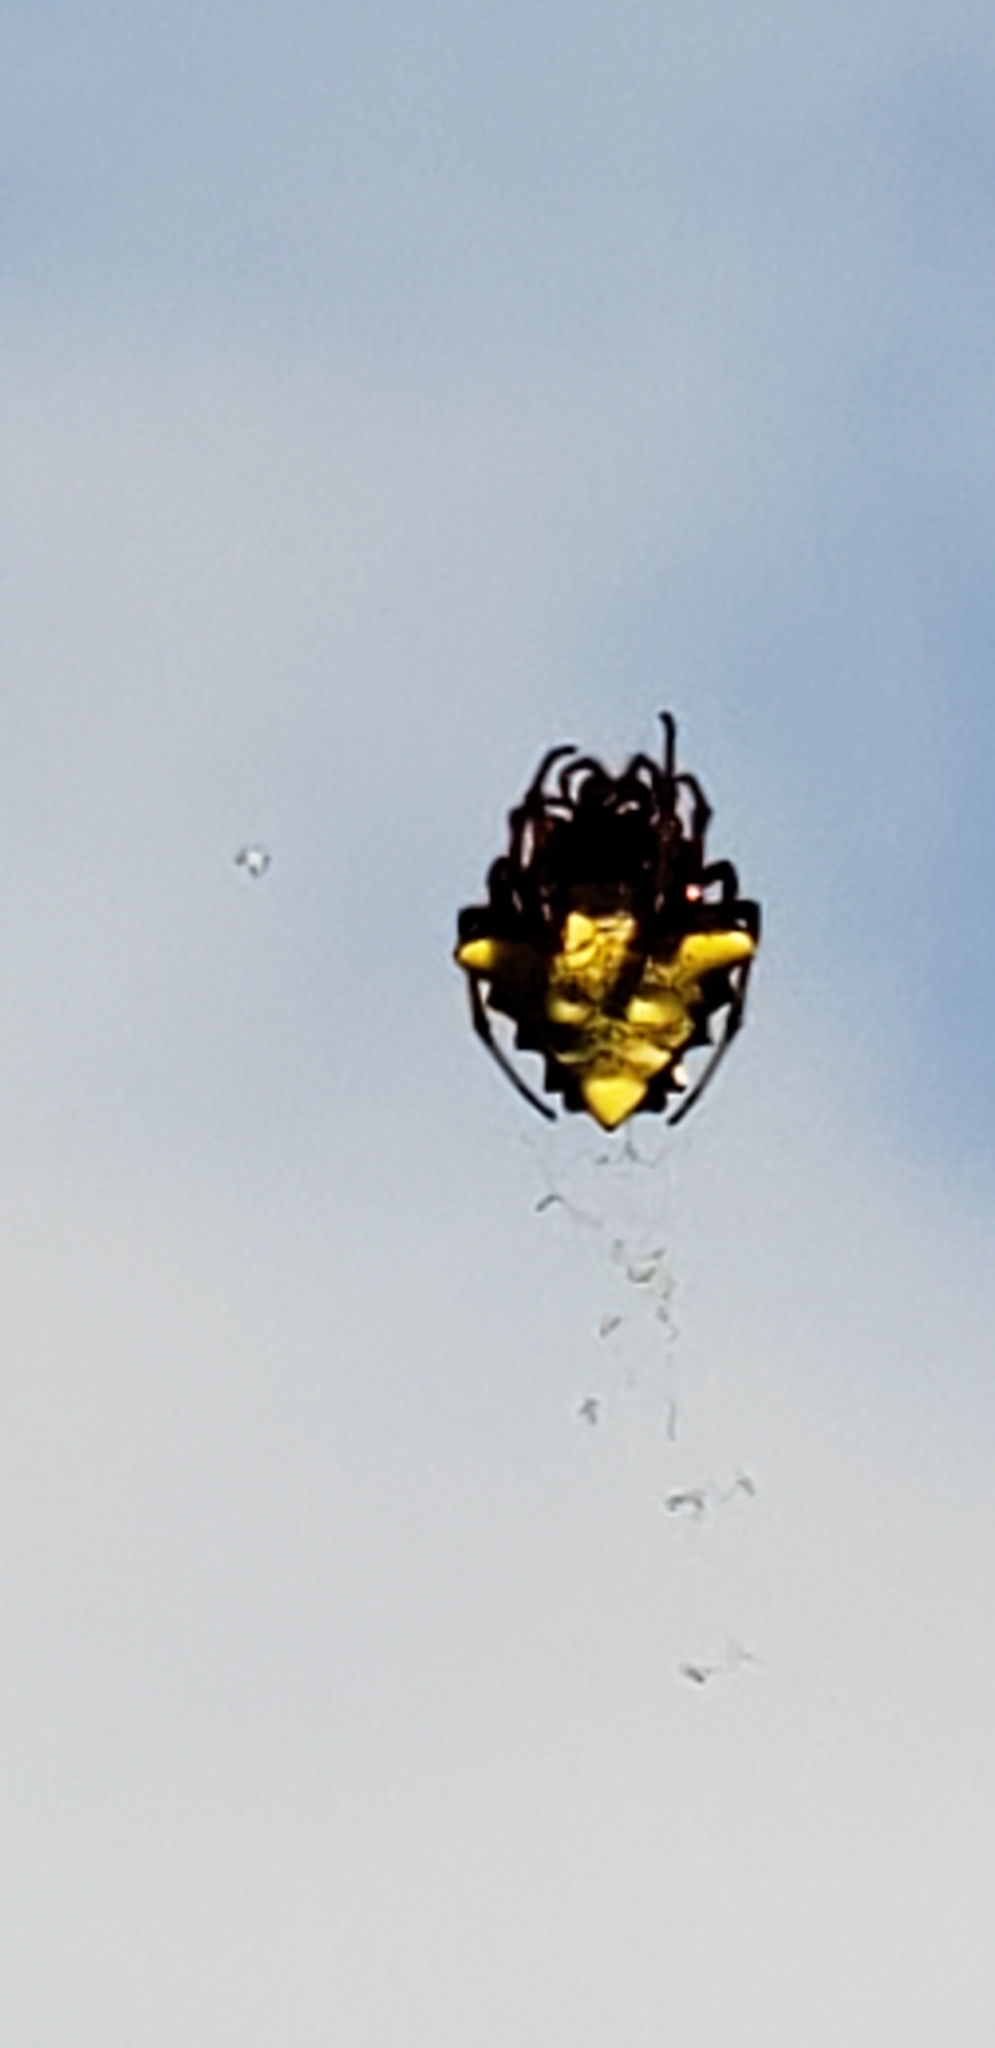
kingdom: Animalia
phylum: Arthropoda
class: Arachnida
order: Araneae
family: Araneidae
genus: Verrucosa
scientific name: Verrucosa arenata
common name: Orb weavers
